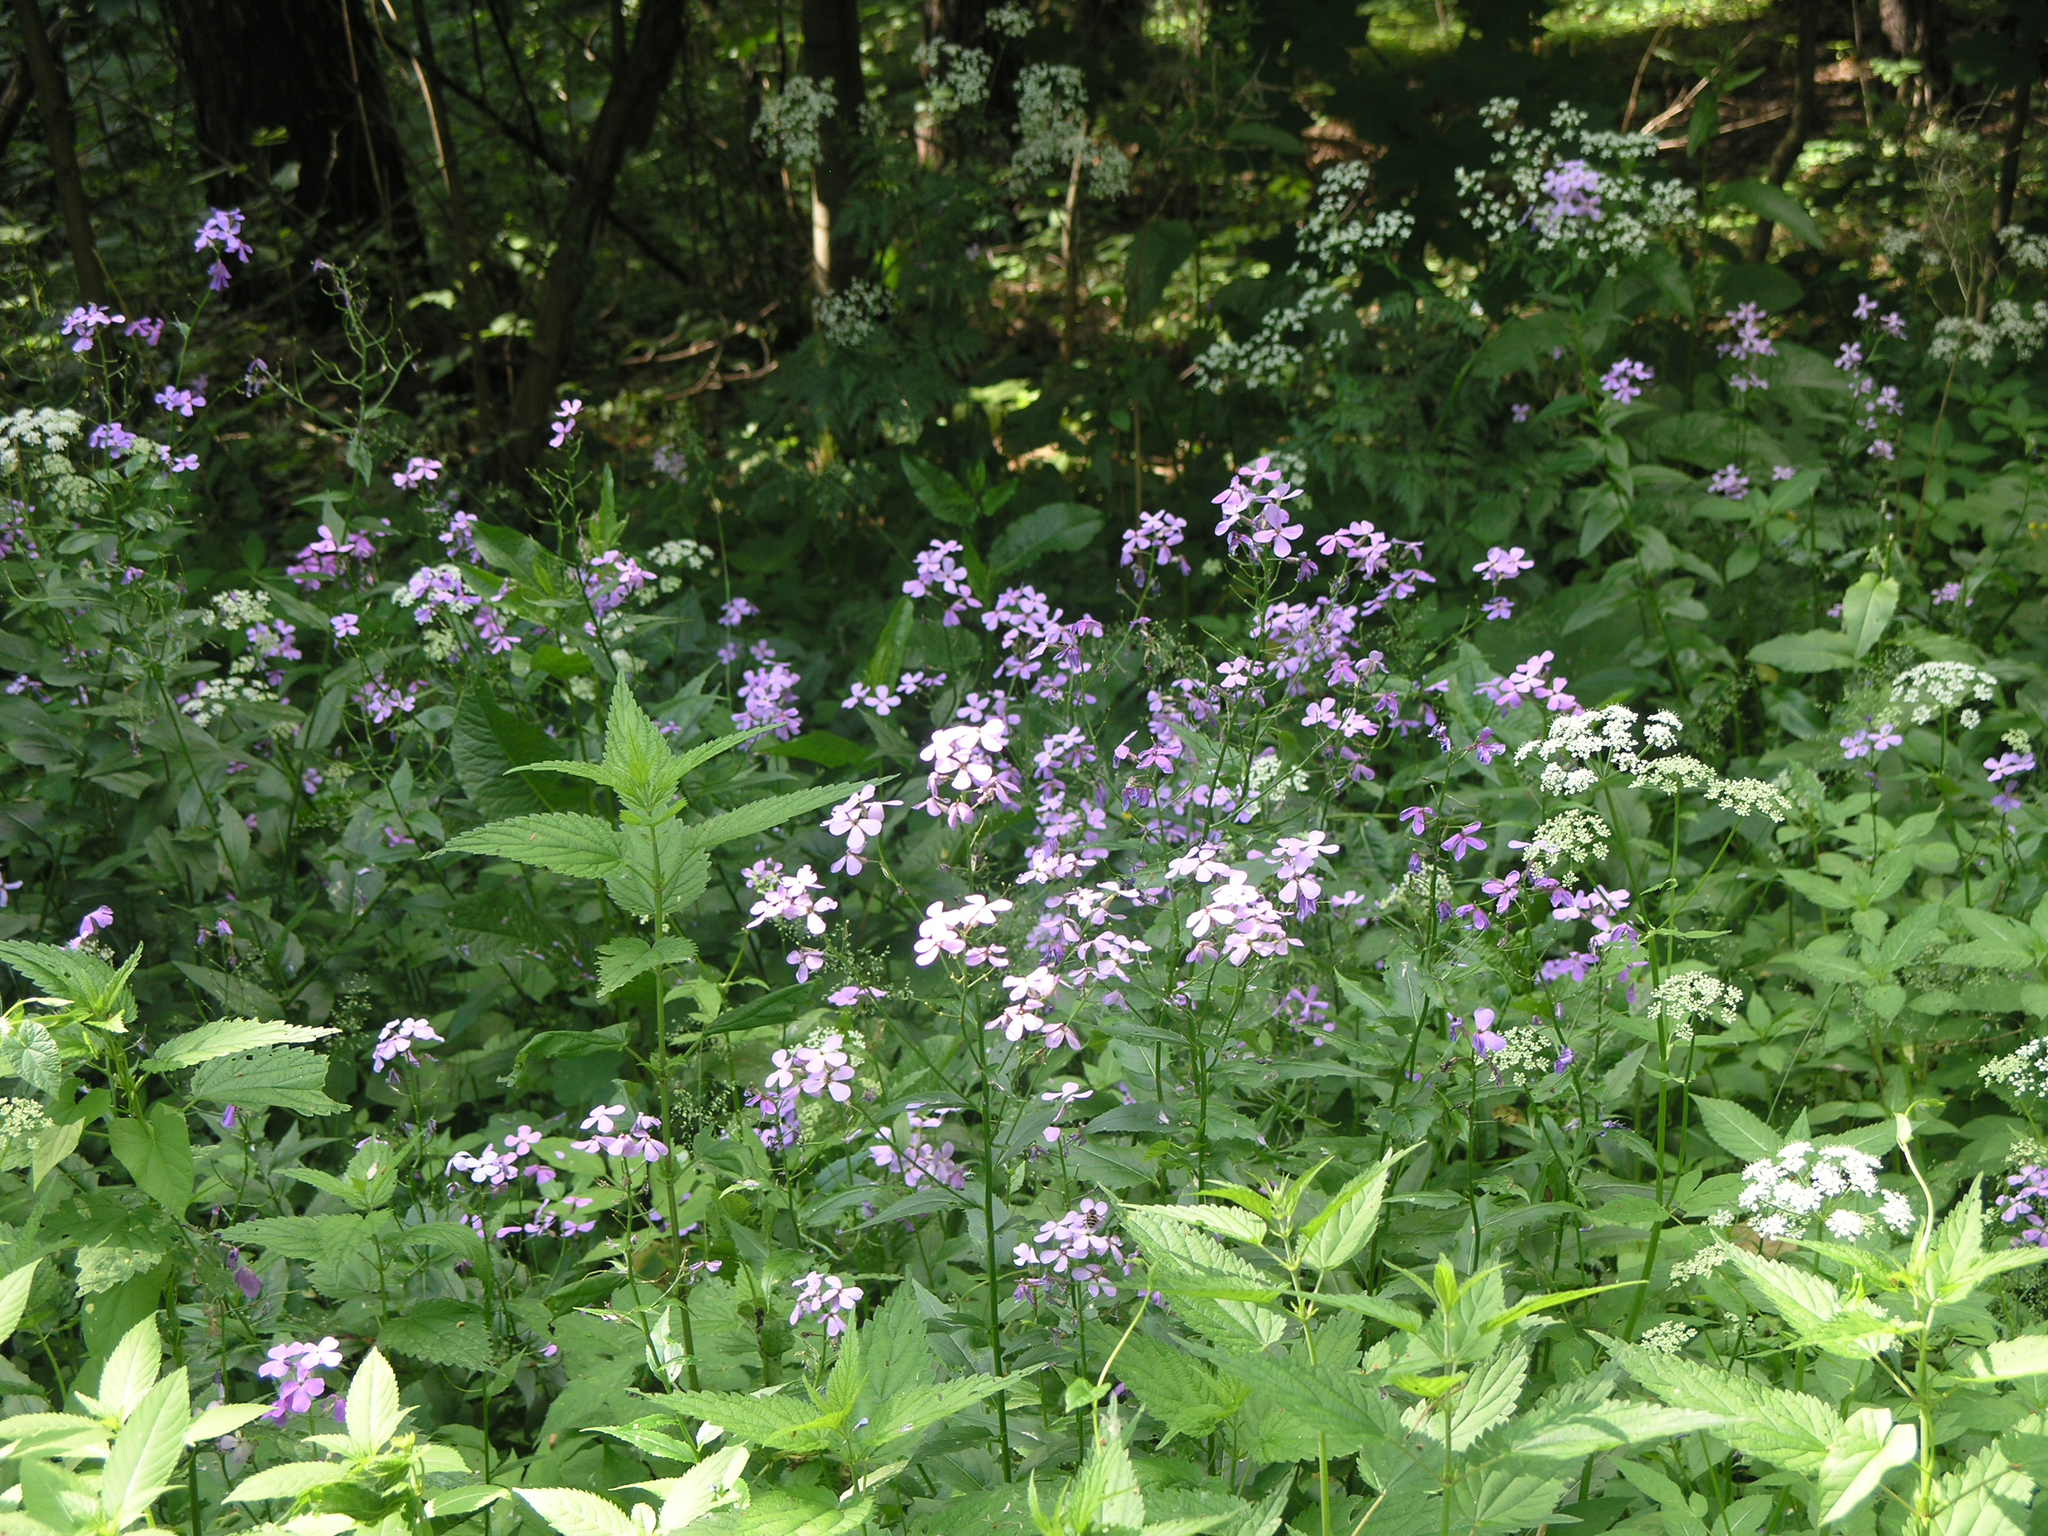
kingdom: Plantae
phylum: Tracheophyta
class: Magnoliopsida
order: Brassicales
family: Brassicaceae
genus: Hesperis
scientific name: Hesperis matronalis
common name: Dame's-violet
